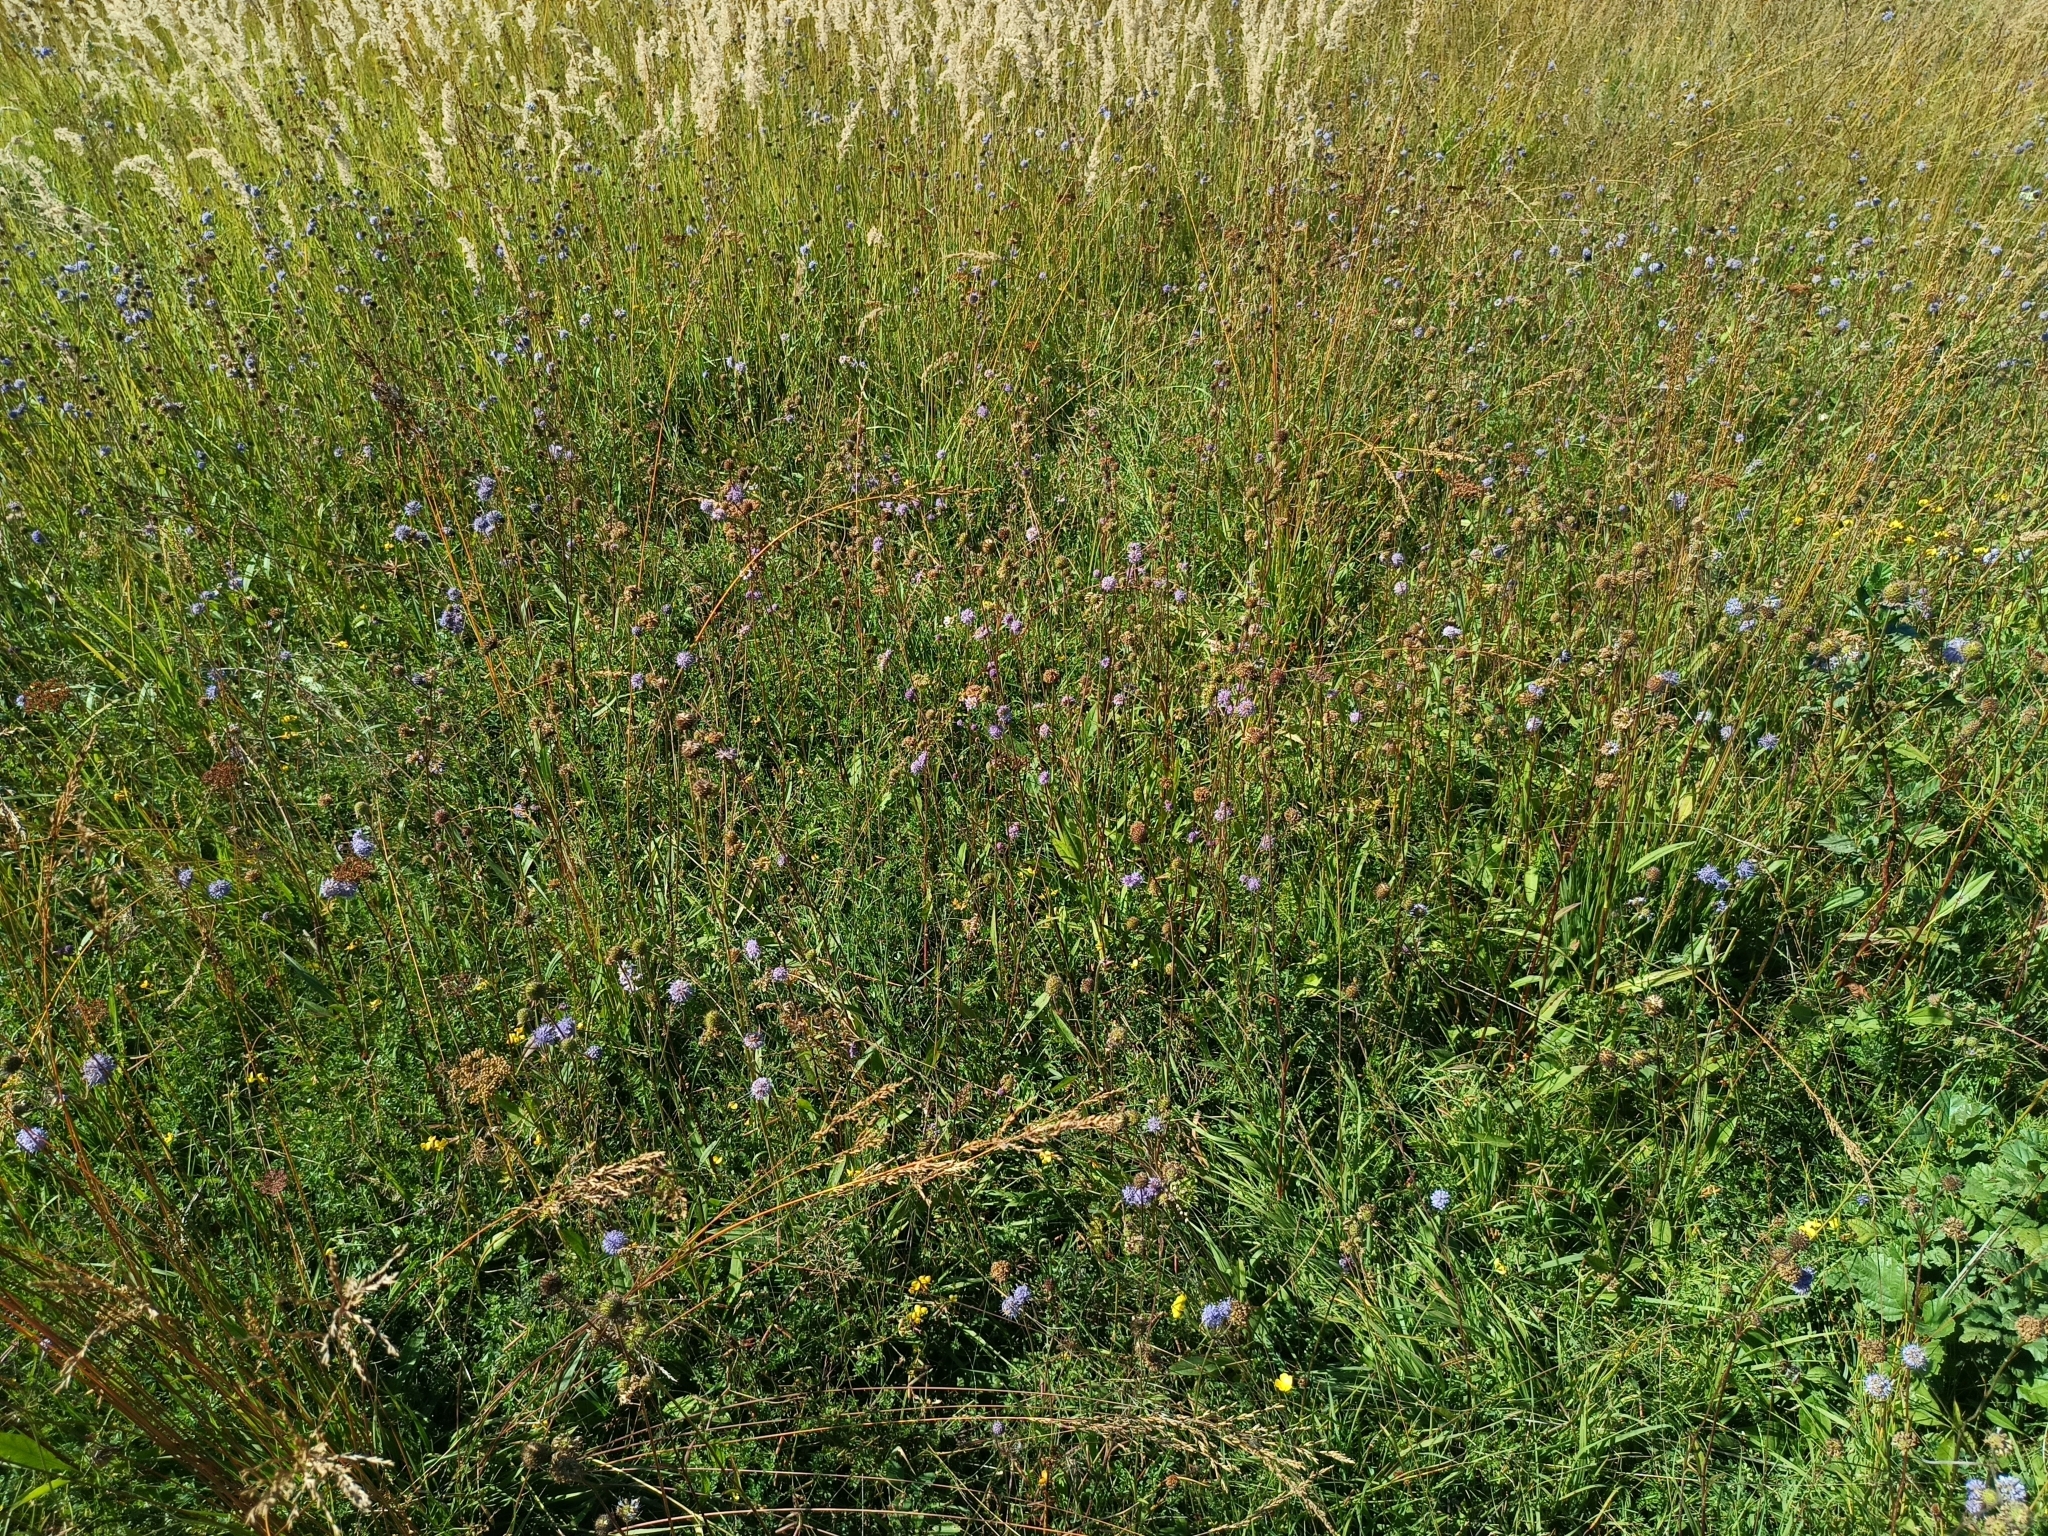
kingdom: Plantae
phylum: Tracheophyta
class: Magnoliopsida
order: Dipsacales
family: Caprifoliaceae
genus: Succisa
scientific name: Succisa pratensis
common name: Devil's-bit
